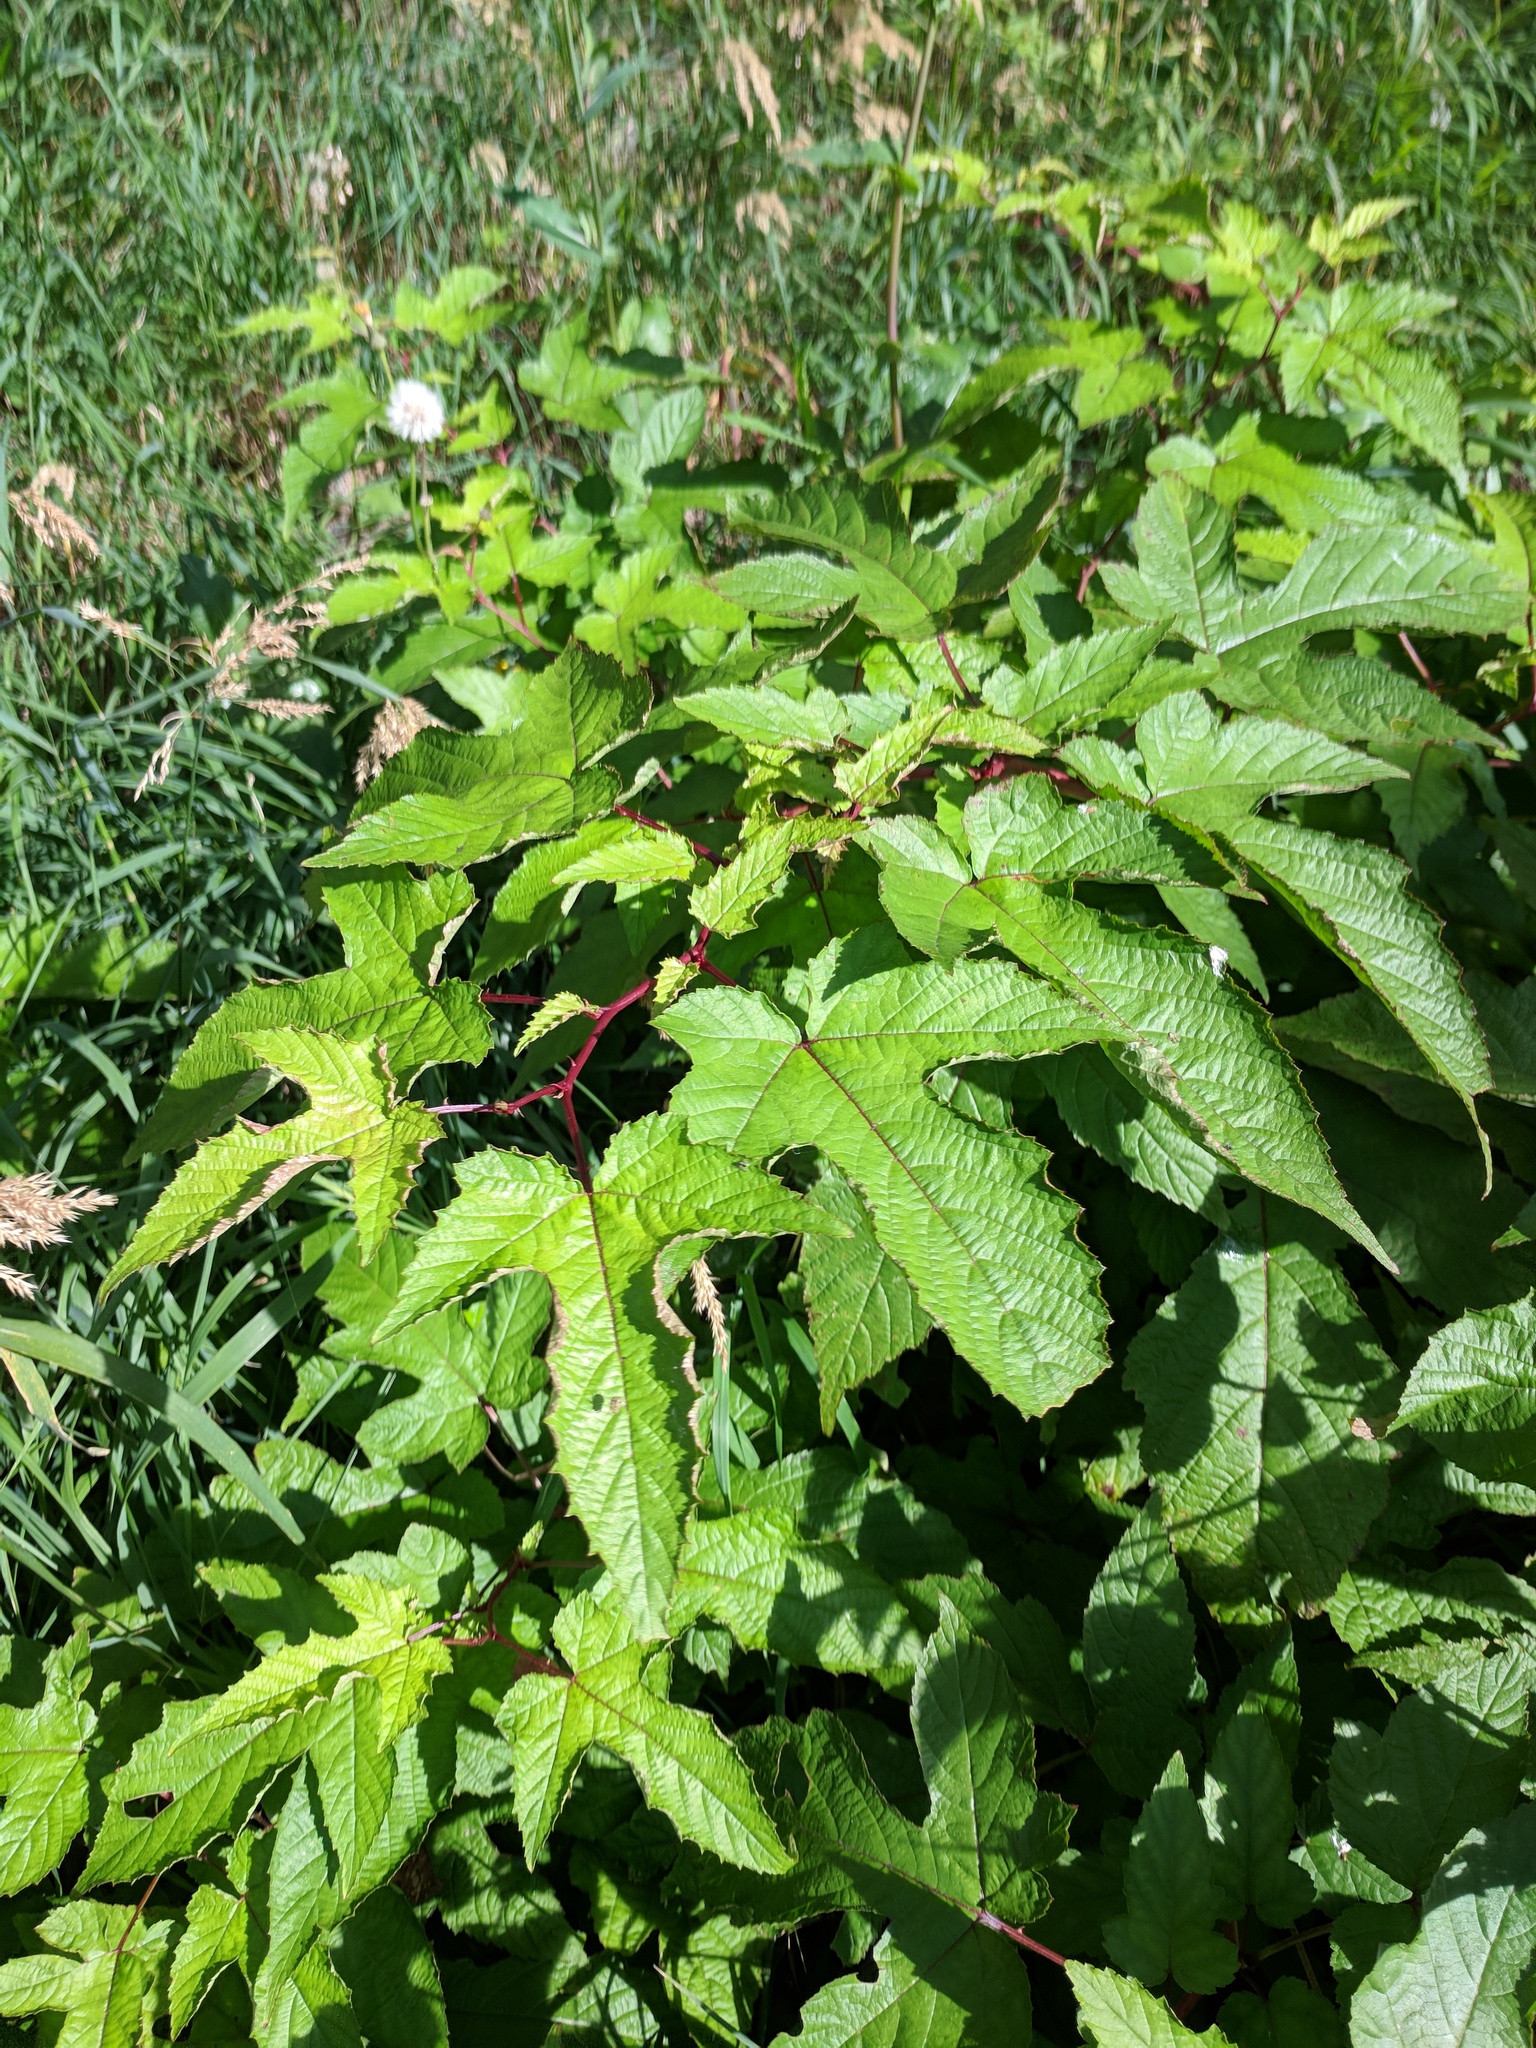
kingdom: Plantae
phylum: Tracheophyta
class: Magnoliopsida
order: Rosales
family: Rosaceae
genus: Rubus
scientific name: Rubus crataegifolius
